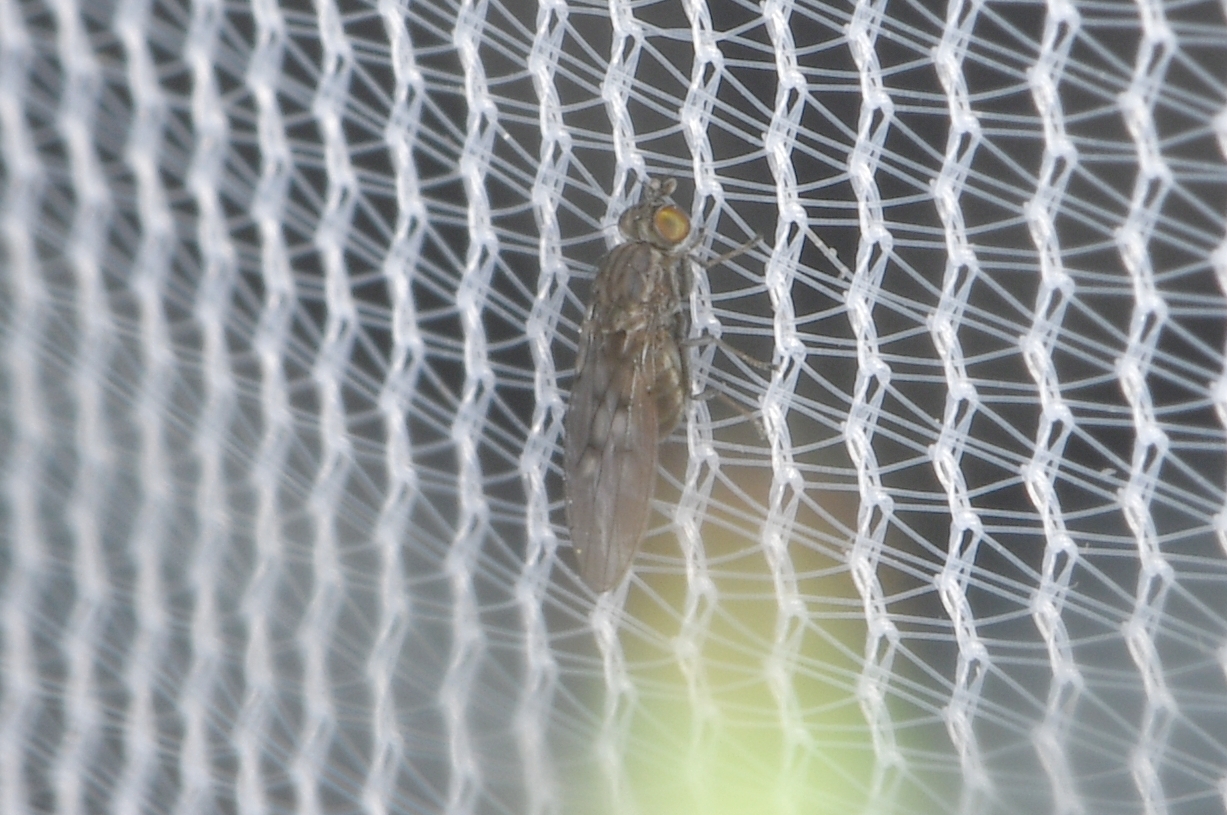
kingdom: Animalia
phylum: Arthropoda
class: Insecta
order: Diptera
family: Ephydridae
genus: Philygria
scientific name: Philygria debilis
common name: Brine fly
